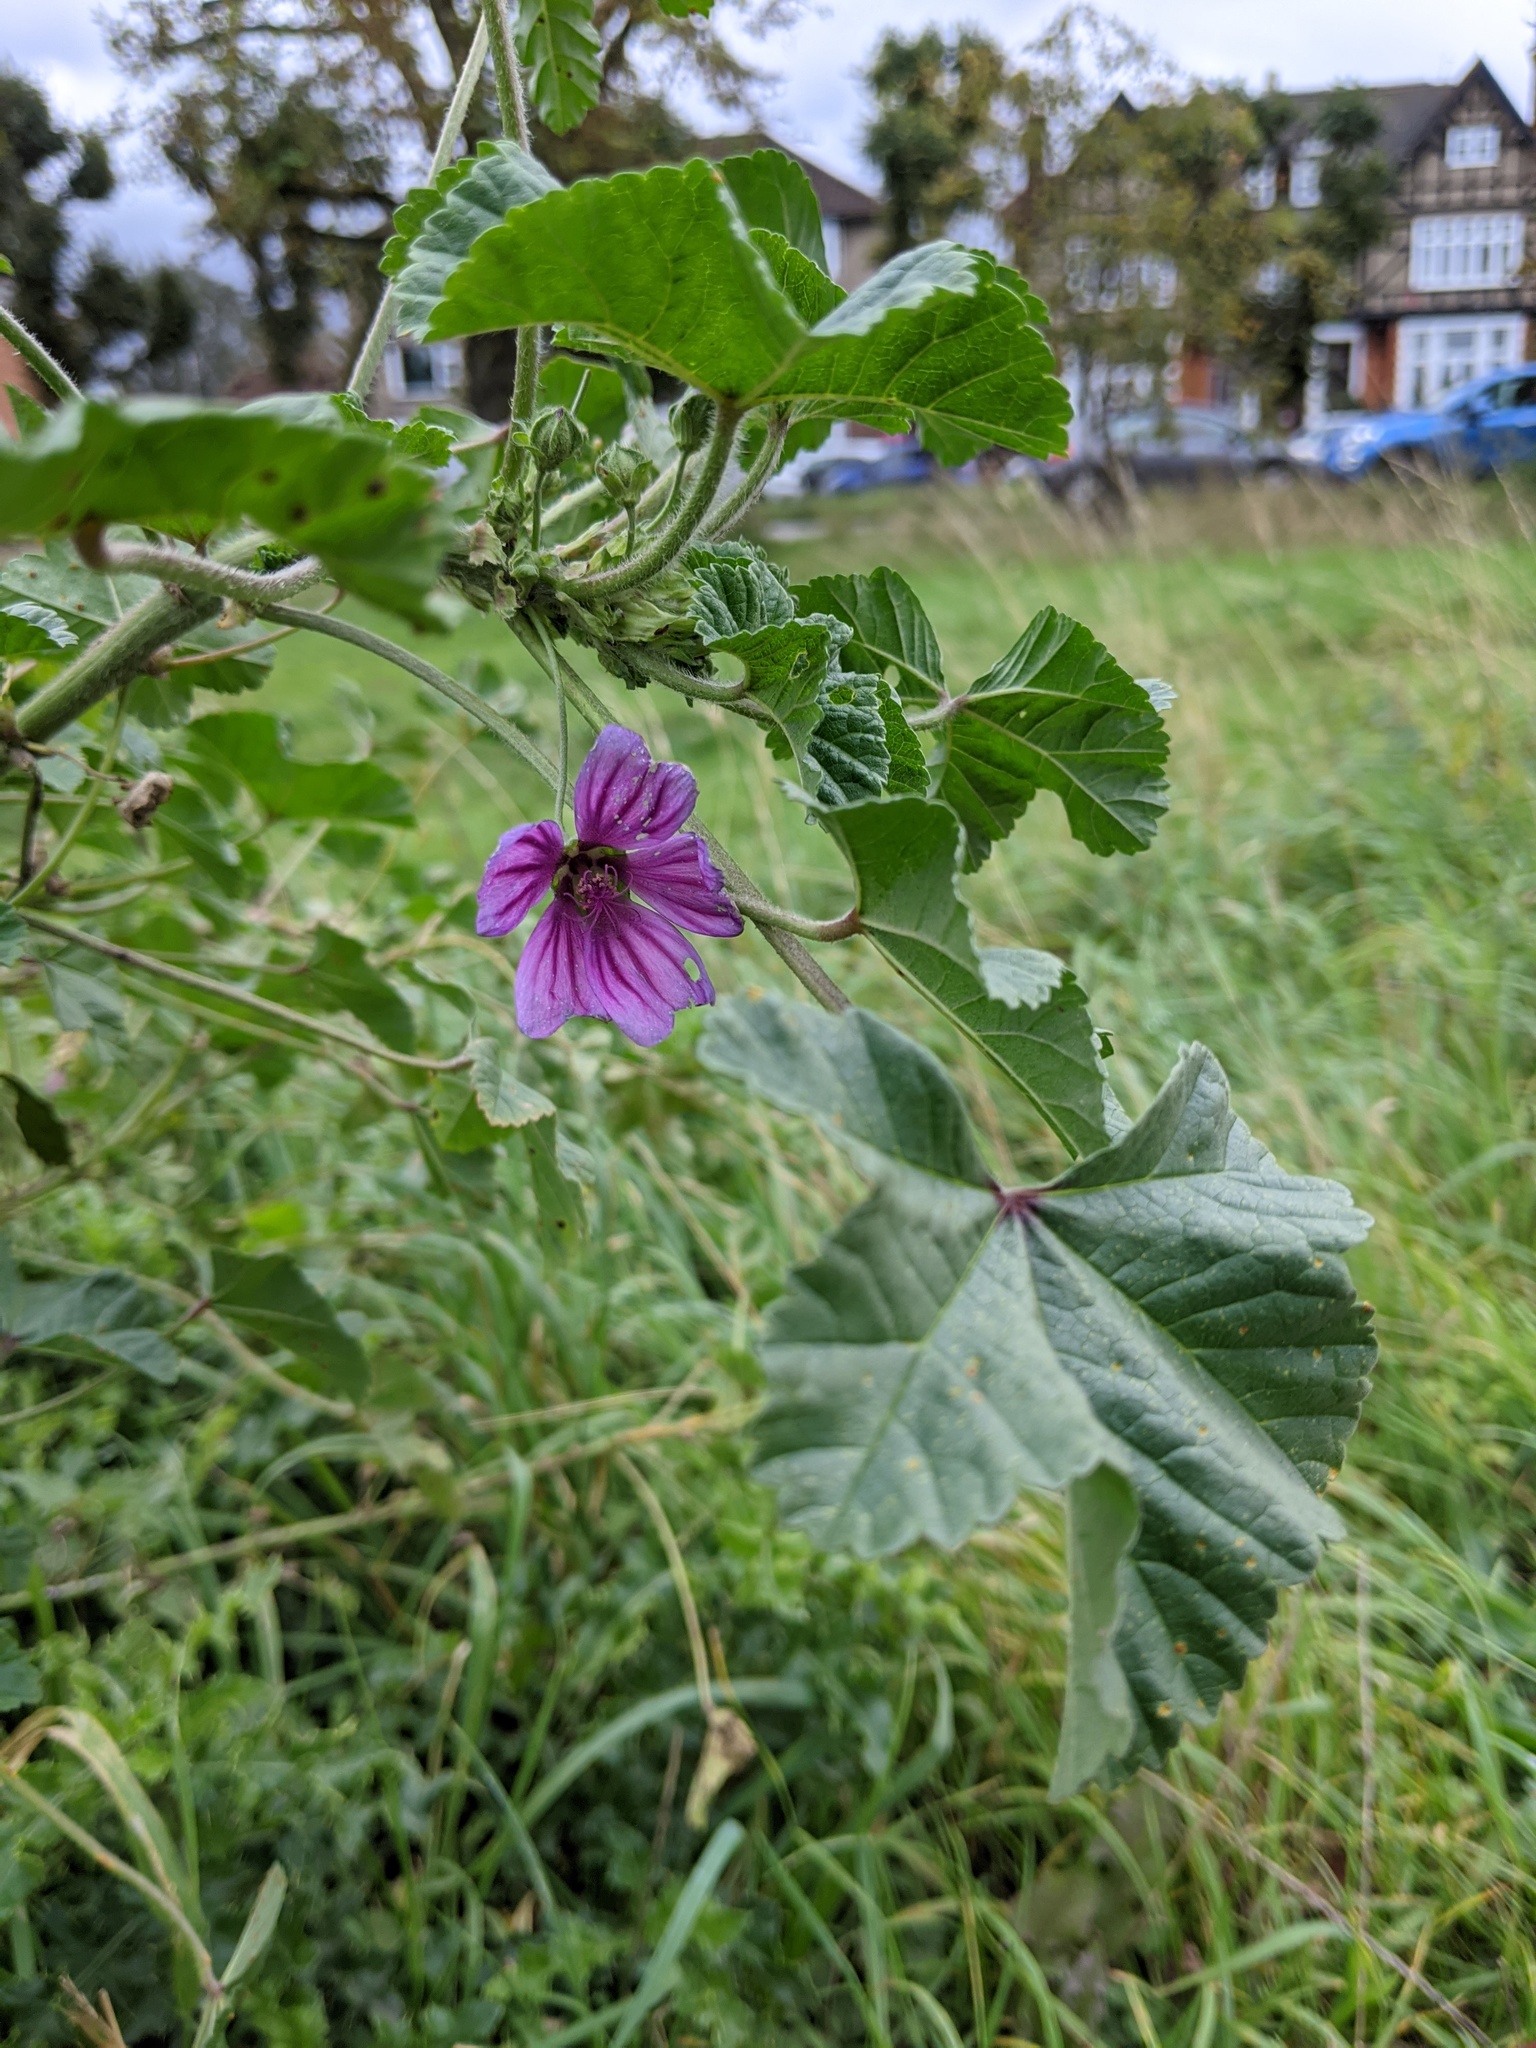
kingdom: Plantae
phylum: Tracheophyta
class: Magnoliopsida
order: Malvales
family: Malvaceae
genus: Malva
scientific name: Malva sylvestris
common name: Common mallow
